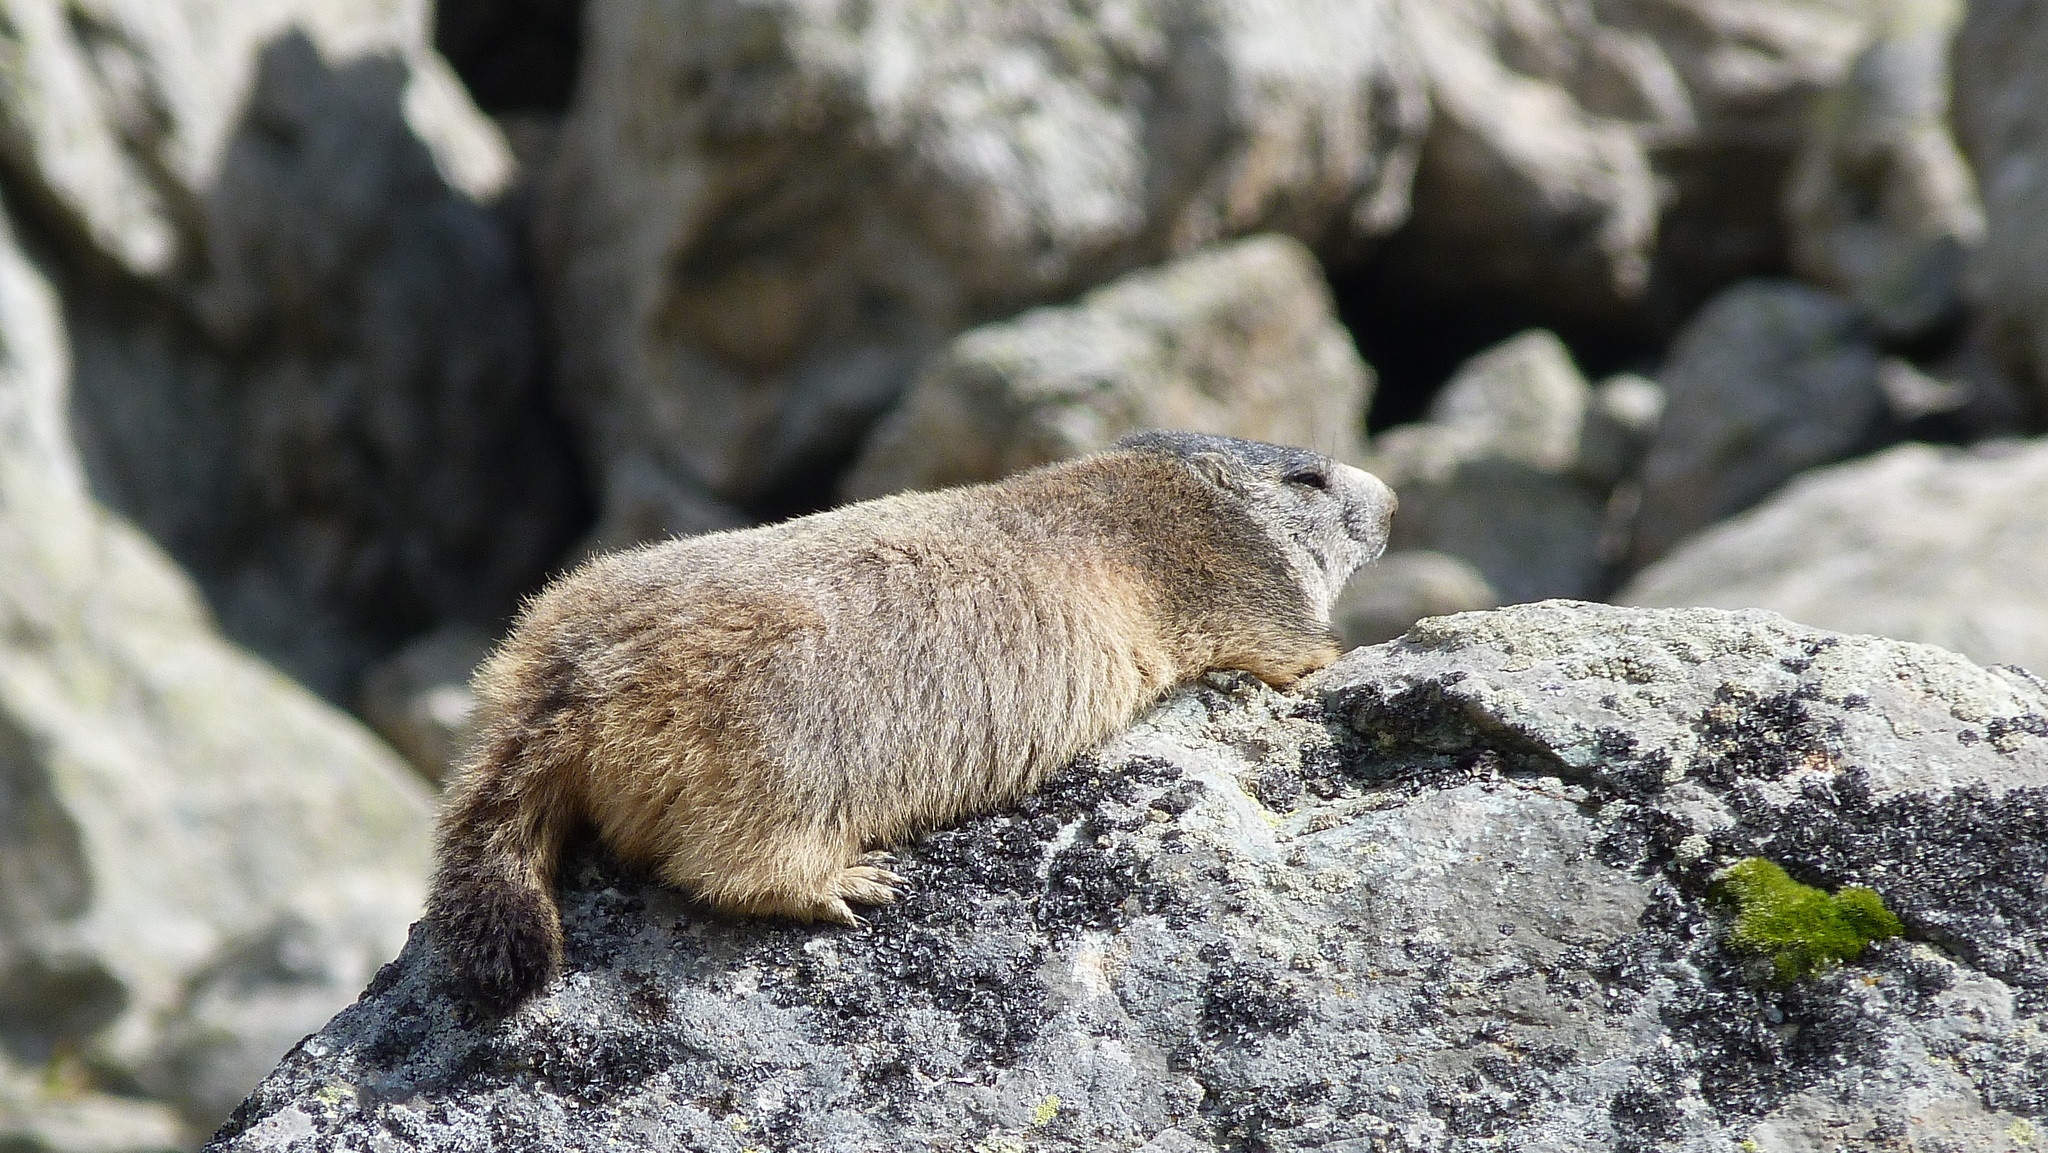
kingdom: Animalia
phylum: Chordata
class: Mammalia
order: Rodentia
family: Sciuridae
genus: Marmota
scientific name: Marmota marmota
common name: Alpine marmot
